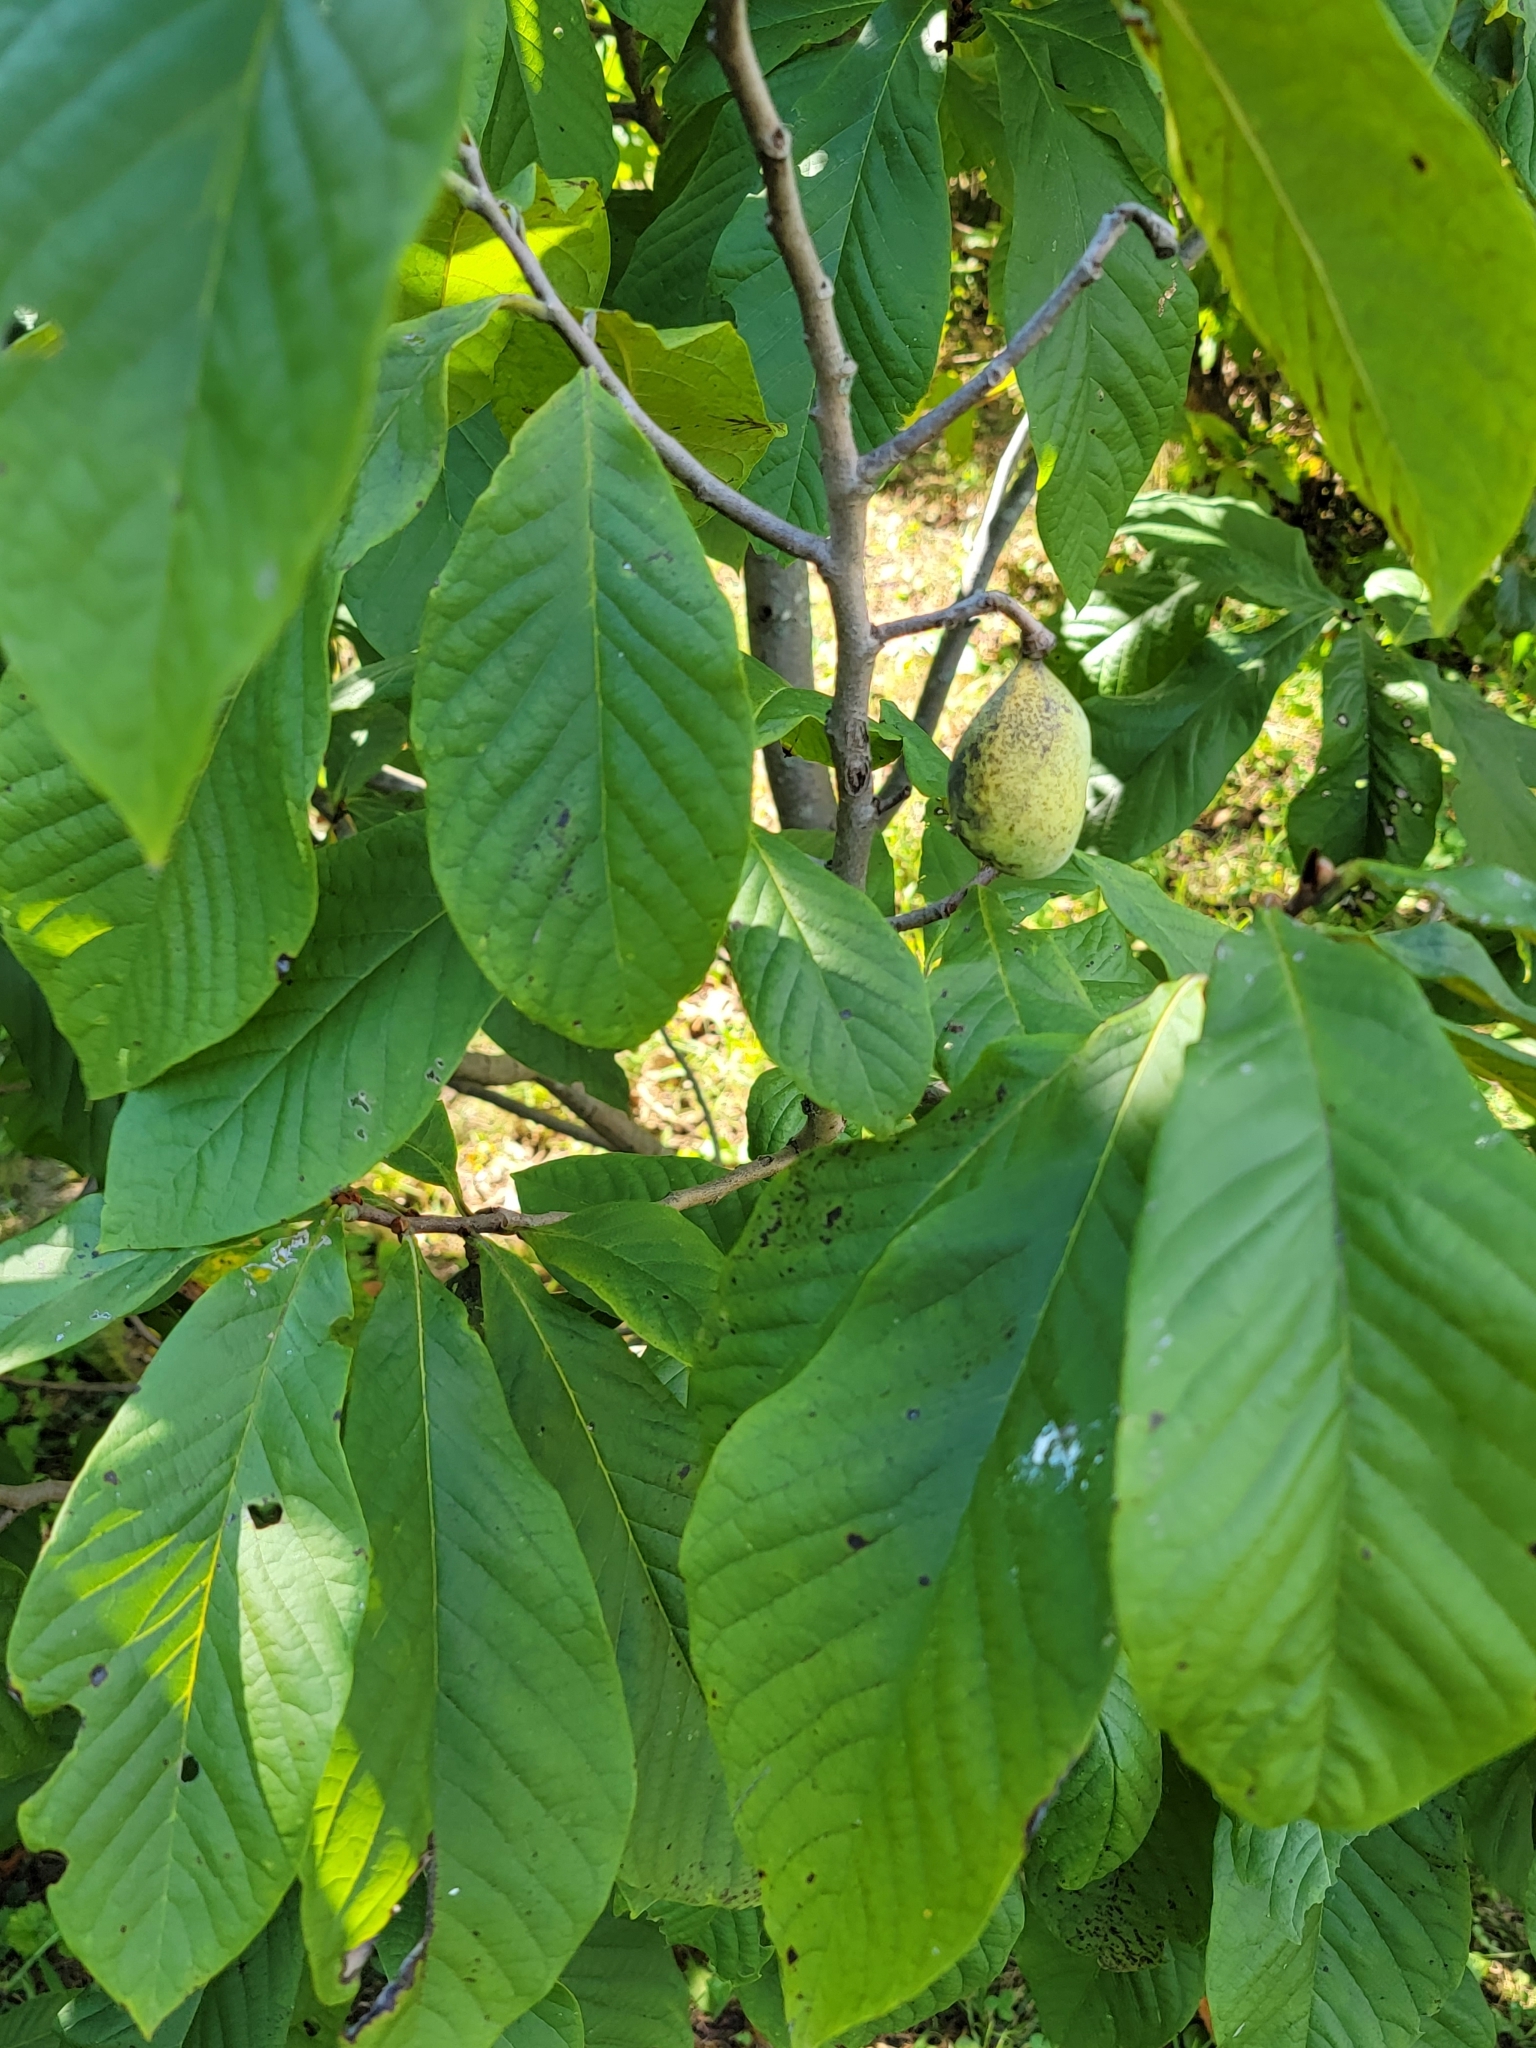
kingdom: Plantae
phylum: Tracheophyta
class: Magnoliopsida
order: Magnoliales
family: Annonaceae
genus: Asimina
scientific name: Asimina triloba
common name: Dog-banana
